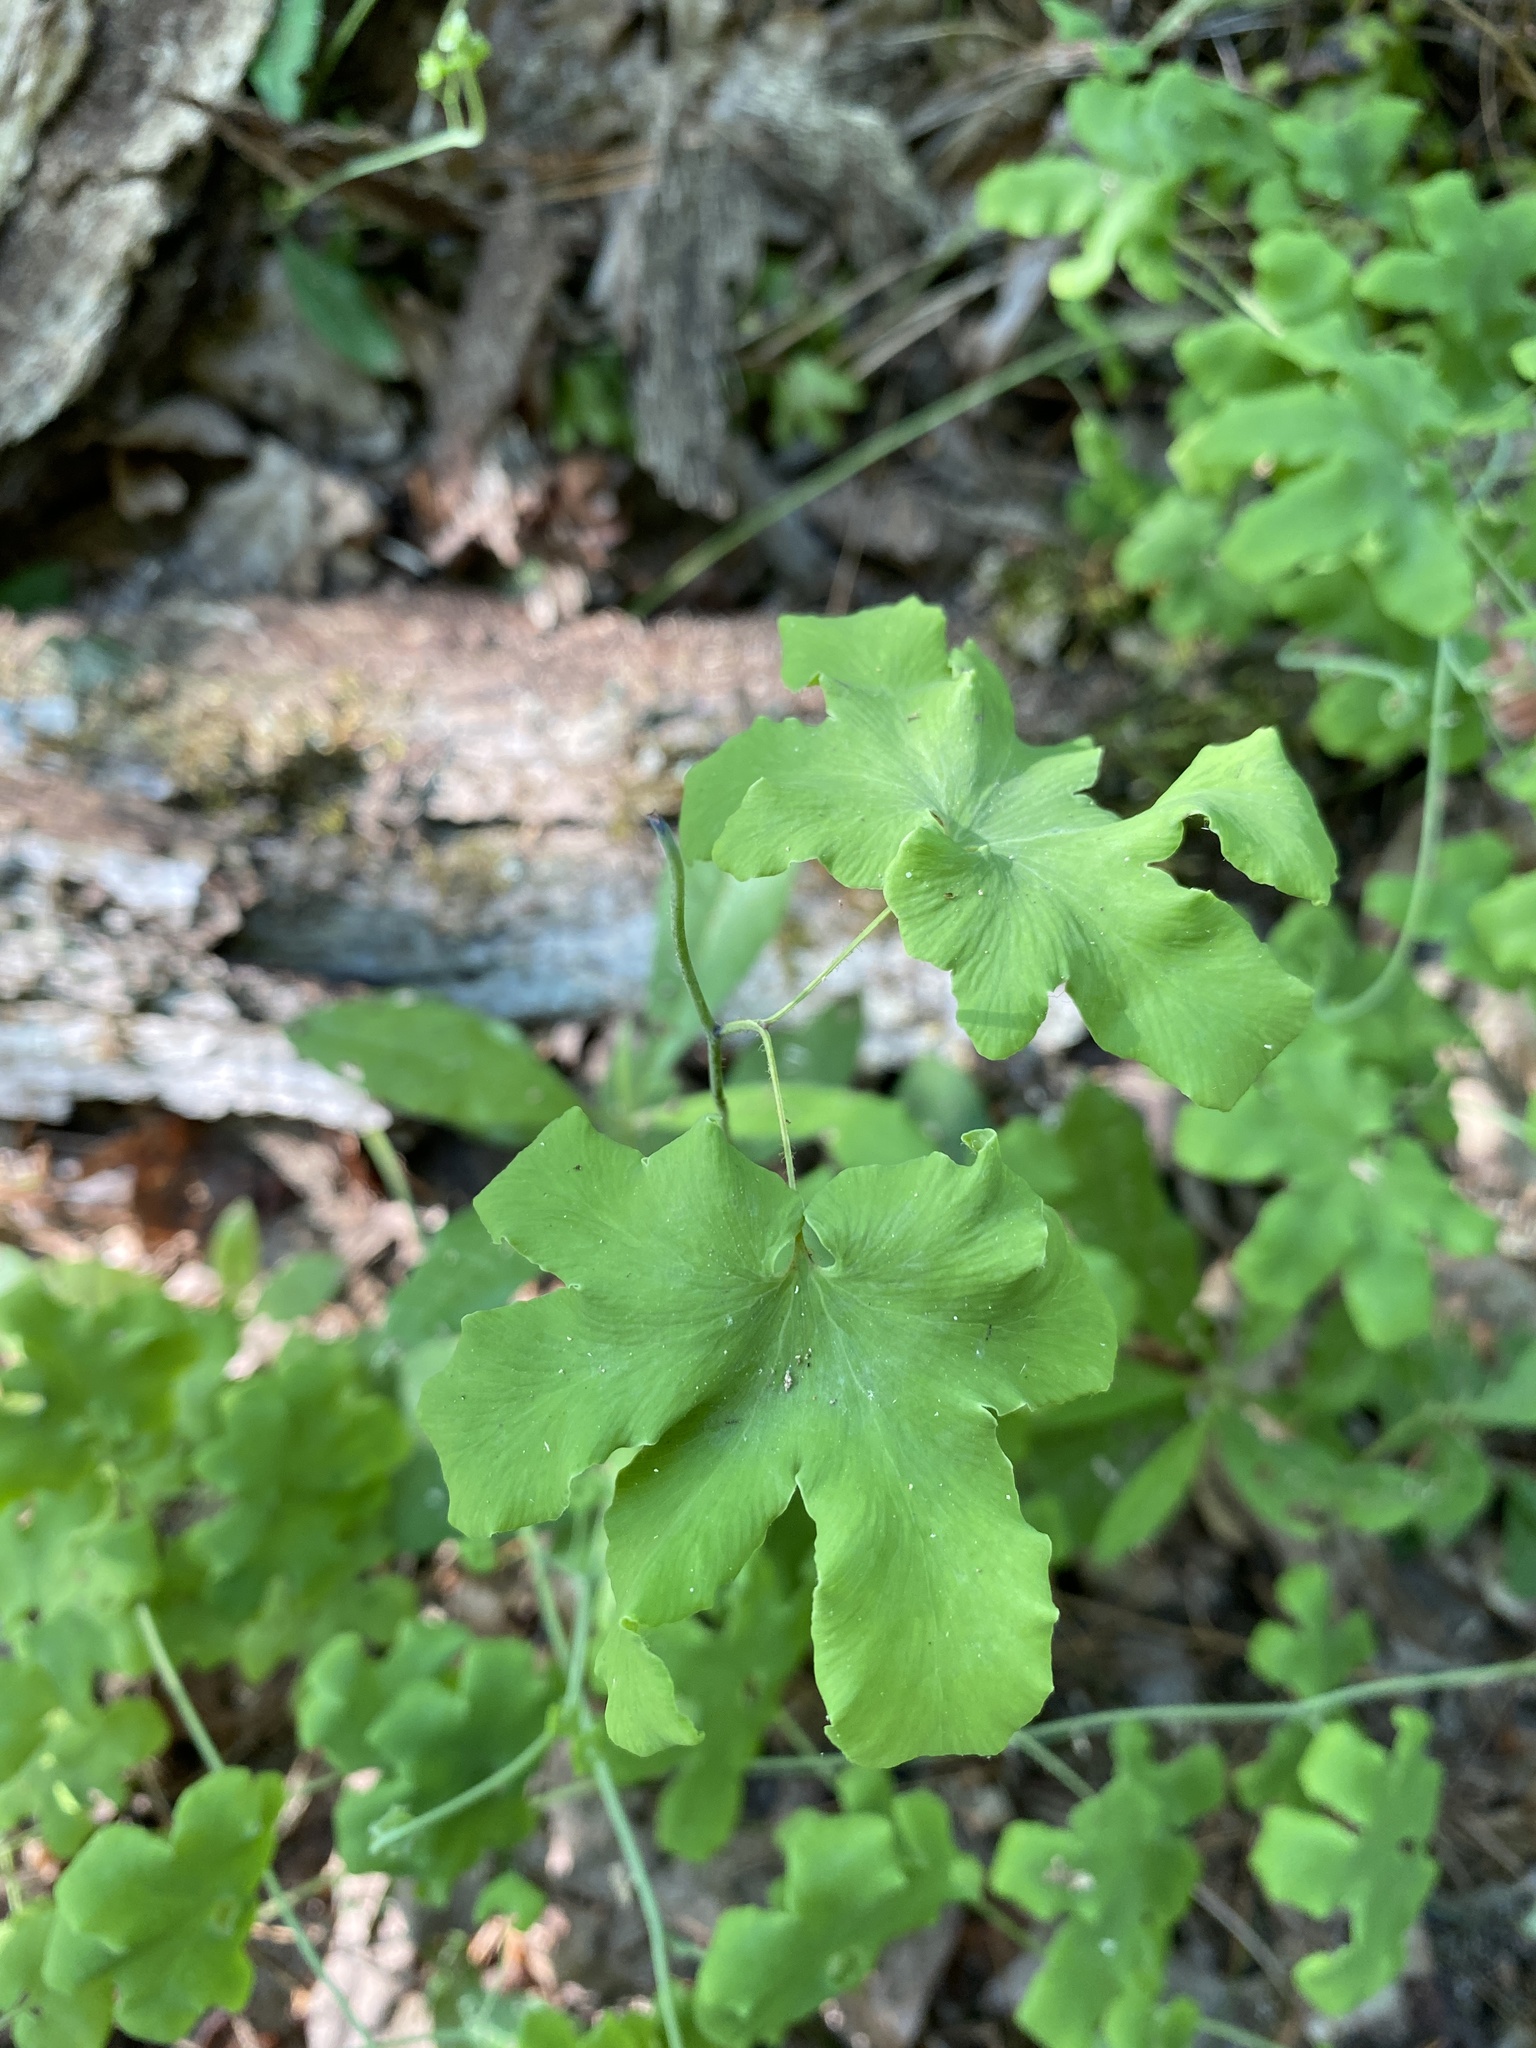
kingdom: Plantae
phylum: Tracheophyta
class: Polypodiopsida
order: Schizaeales
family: Lygodiaceae
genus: Lygodium
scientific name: Lygodium palmatum
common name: American climbing fern
